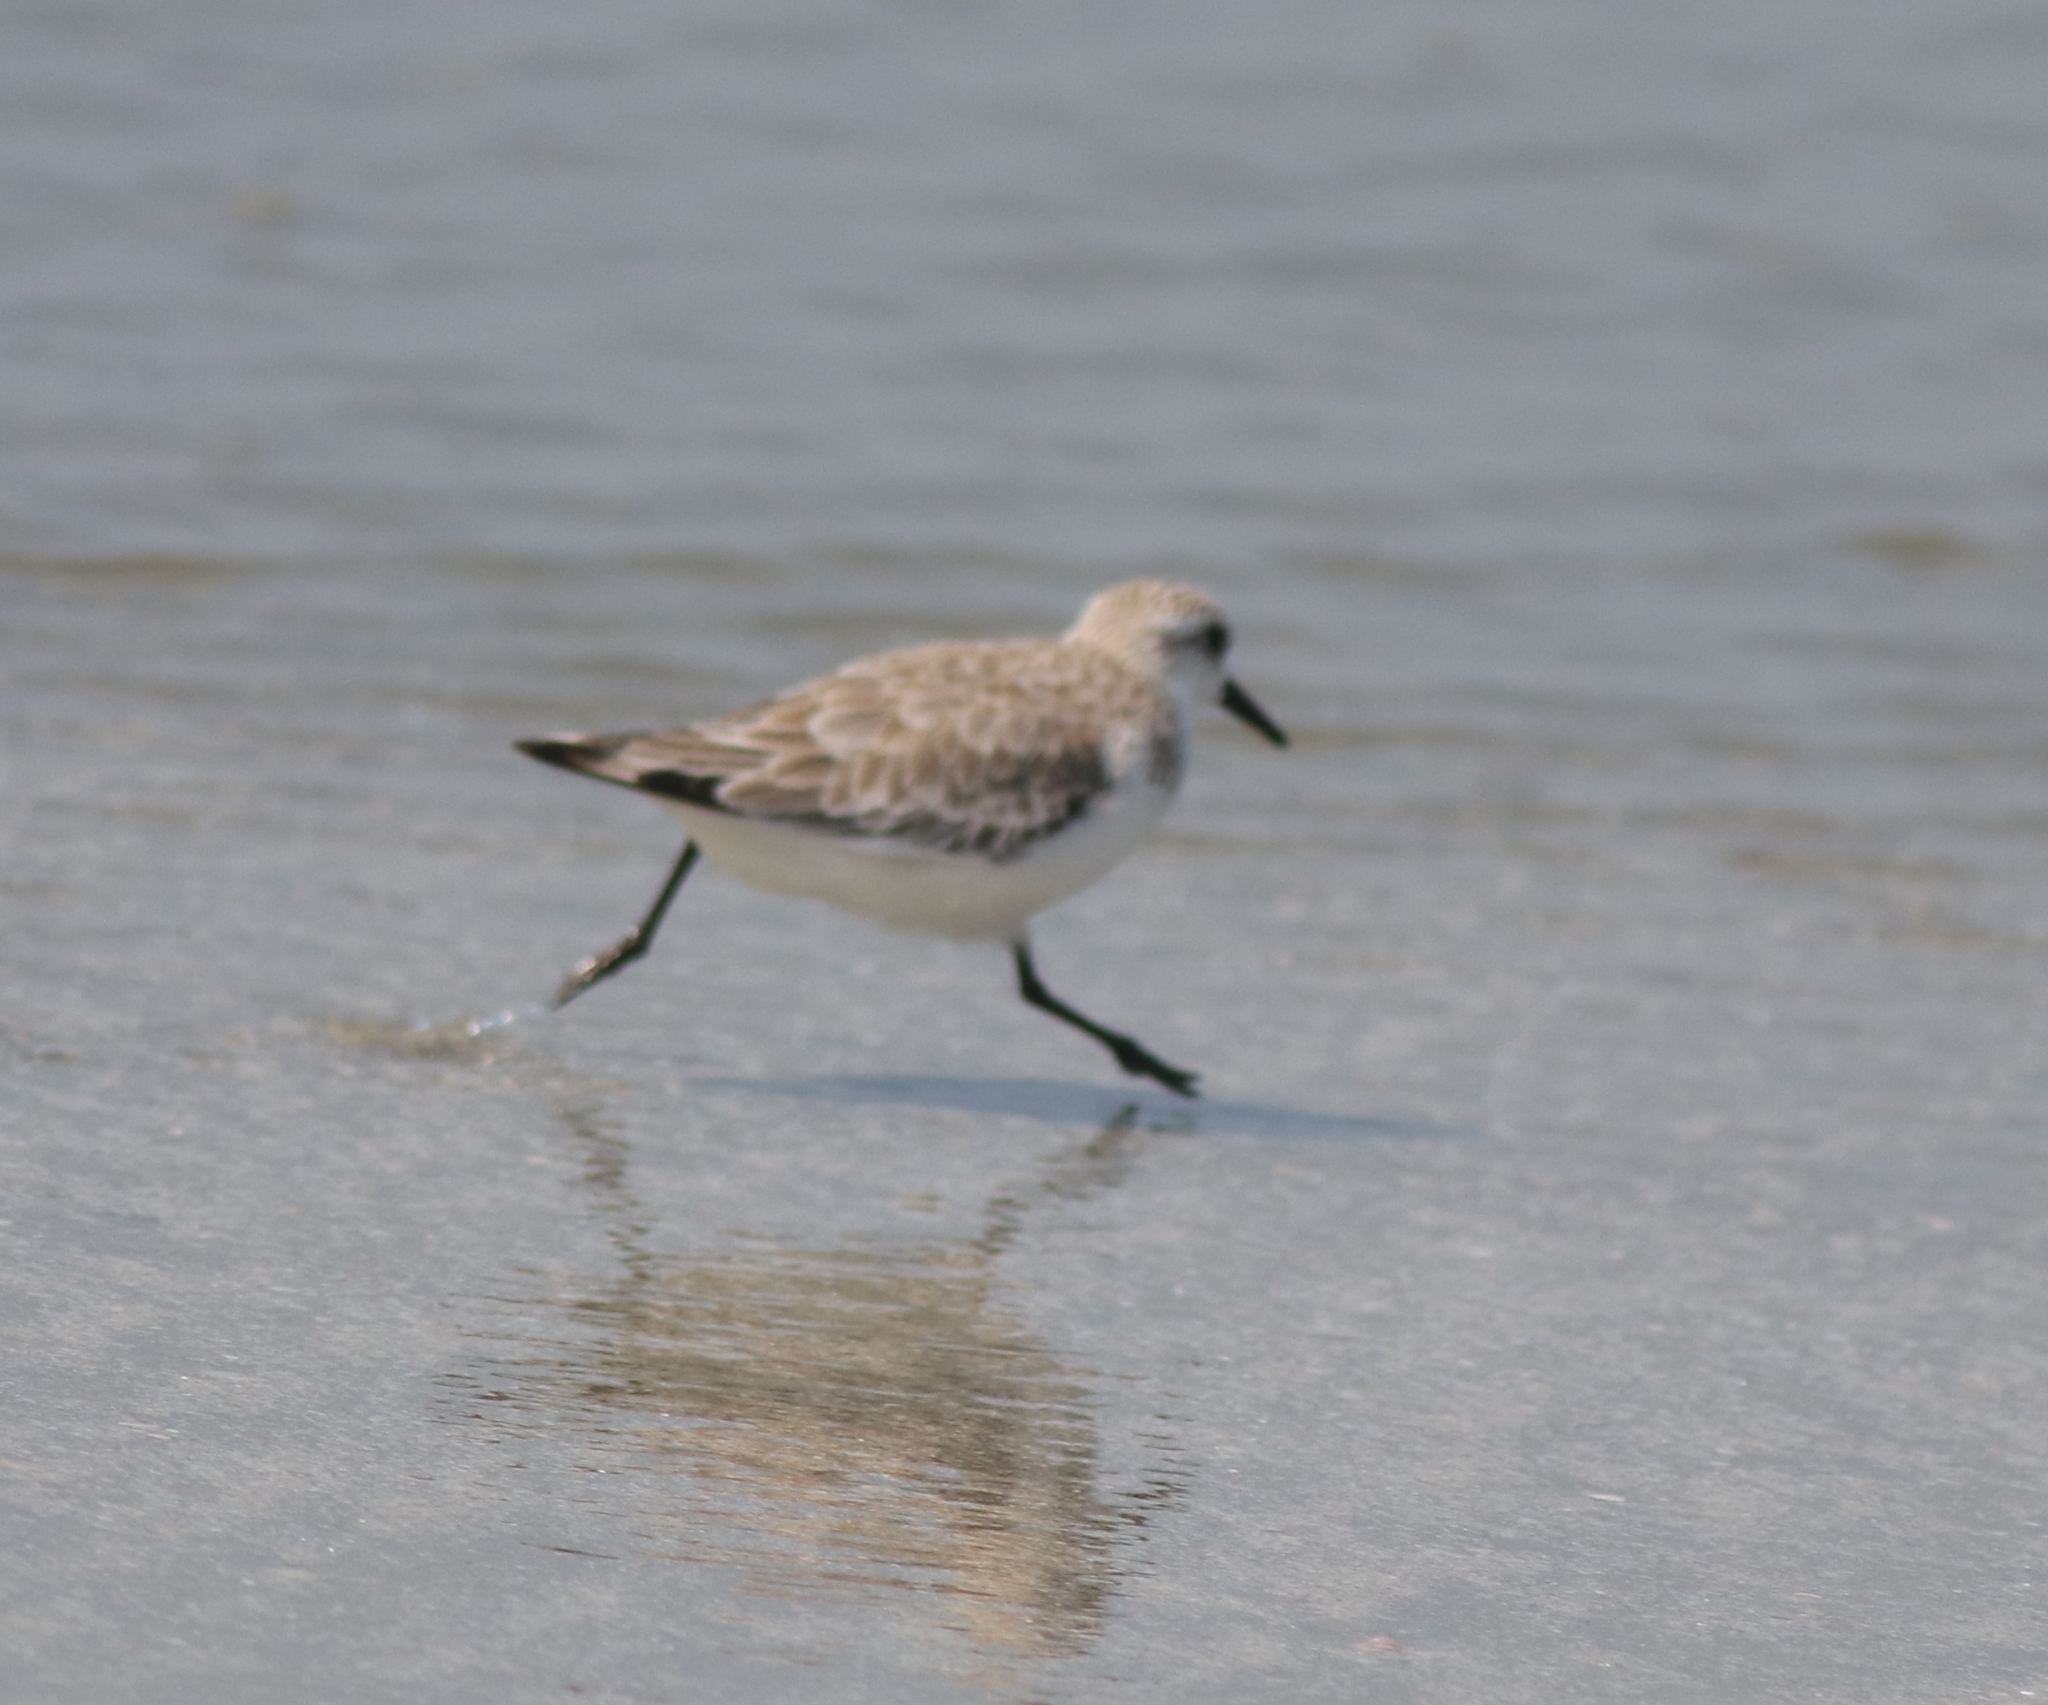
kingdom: Animalia
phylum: Chordata
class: Aves
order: Charadriiformes
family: Scolopacidae
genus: Calidris
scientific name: Calidris alba
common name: Sanderling
